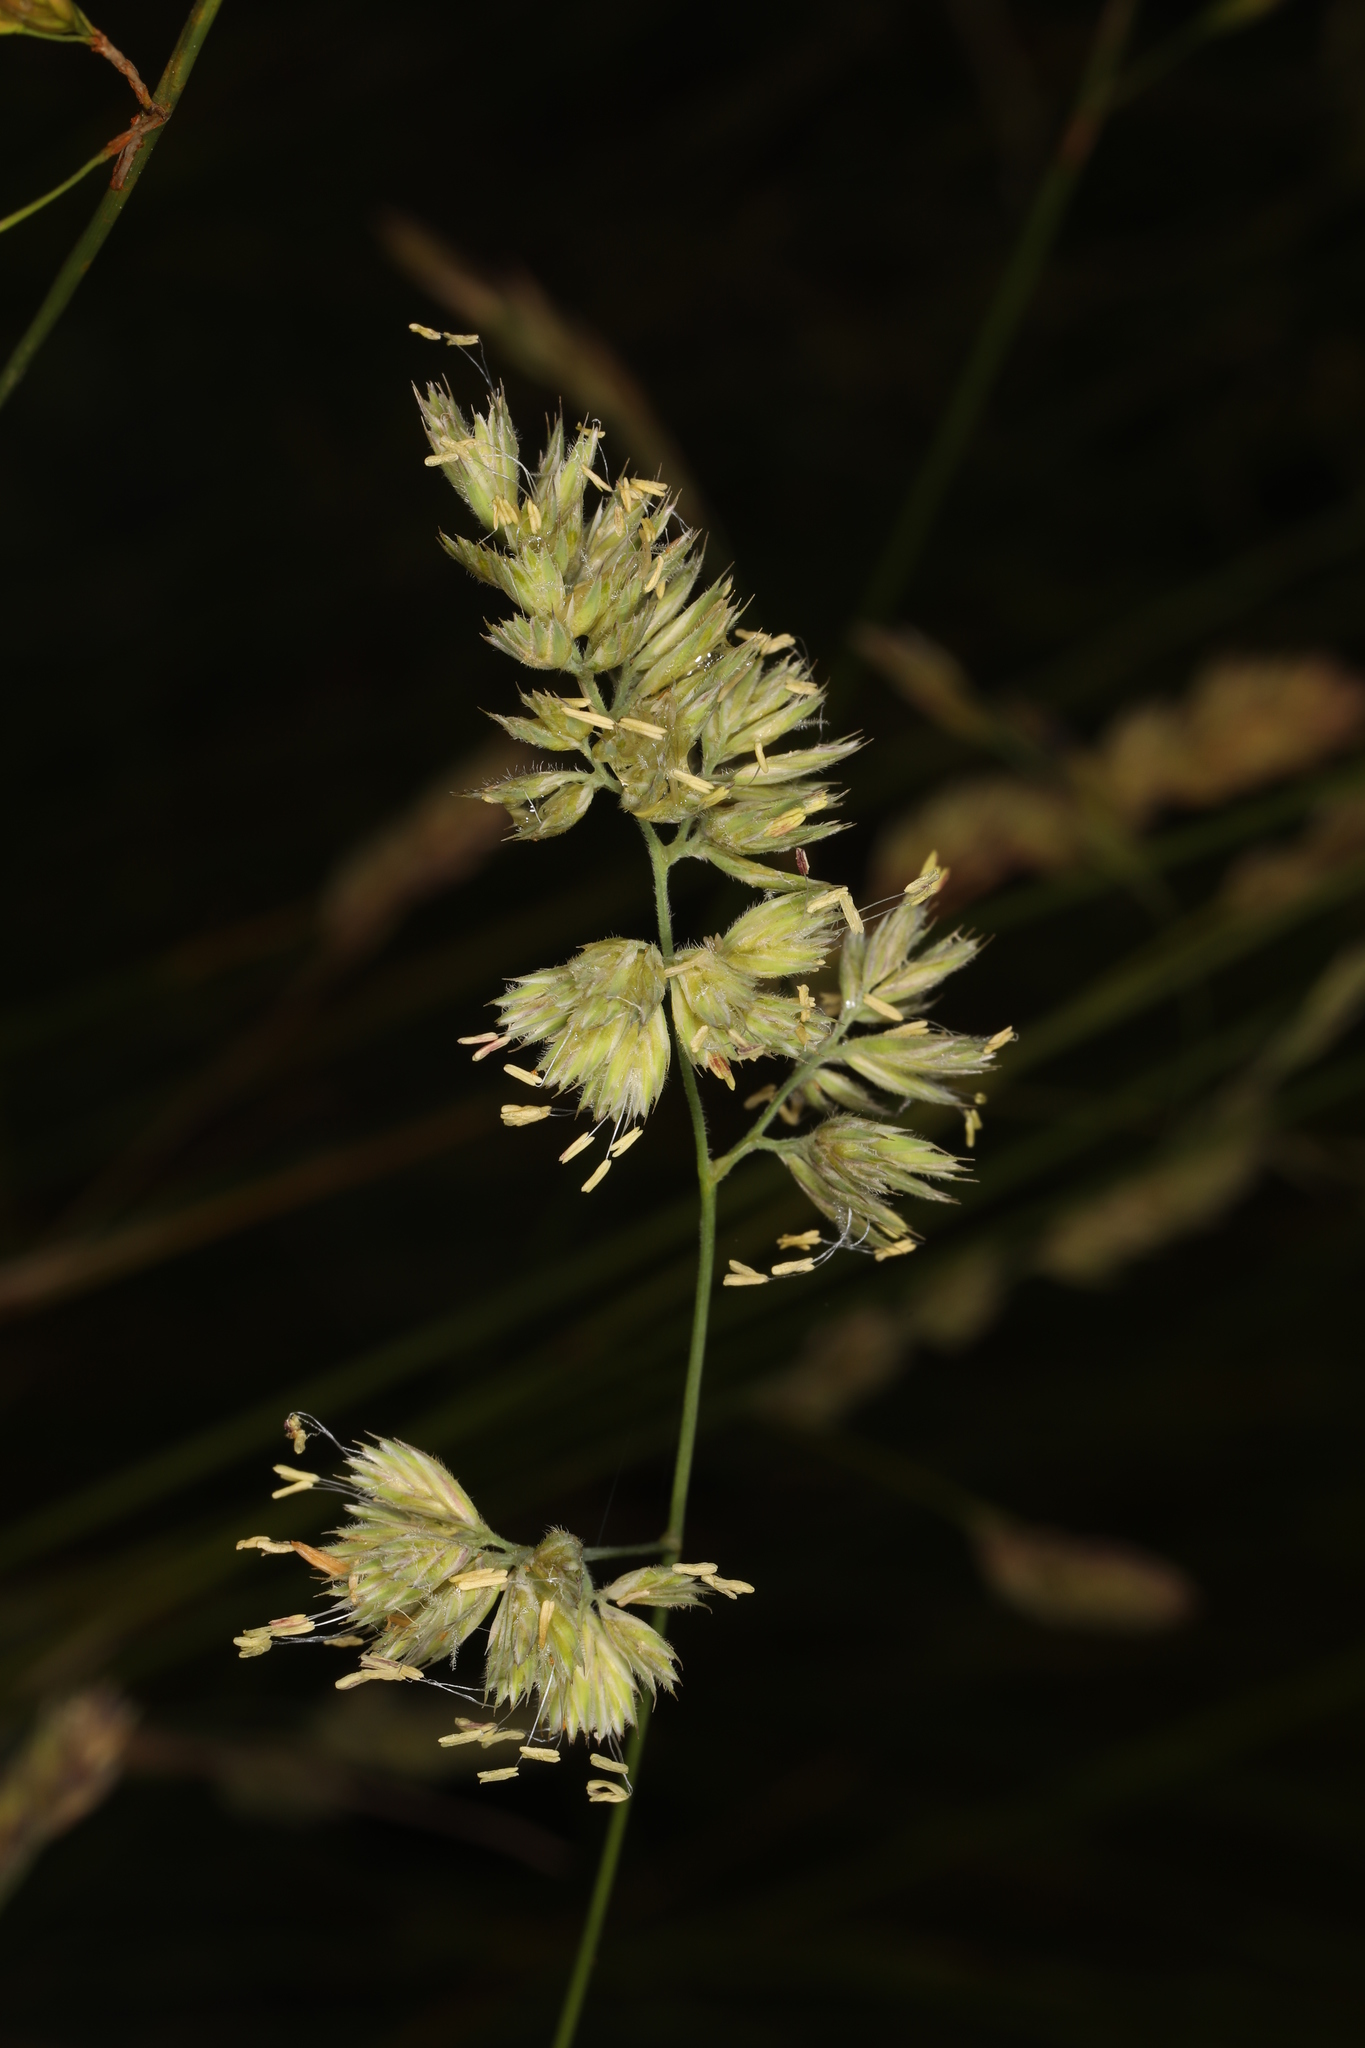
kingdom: Plantae
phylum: Tracheophyta
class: Liliopsida
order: Poales
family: Poaceae
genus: Dactylis
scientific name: Dactylis glomerata
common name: Orchardgrass
